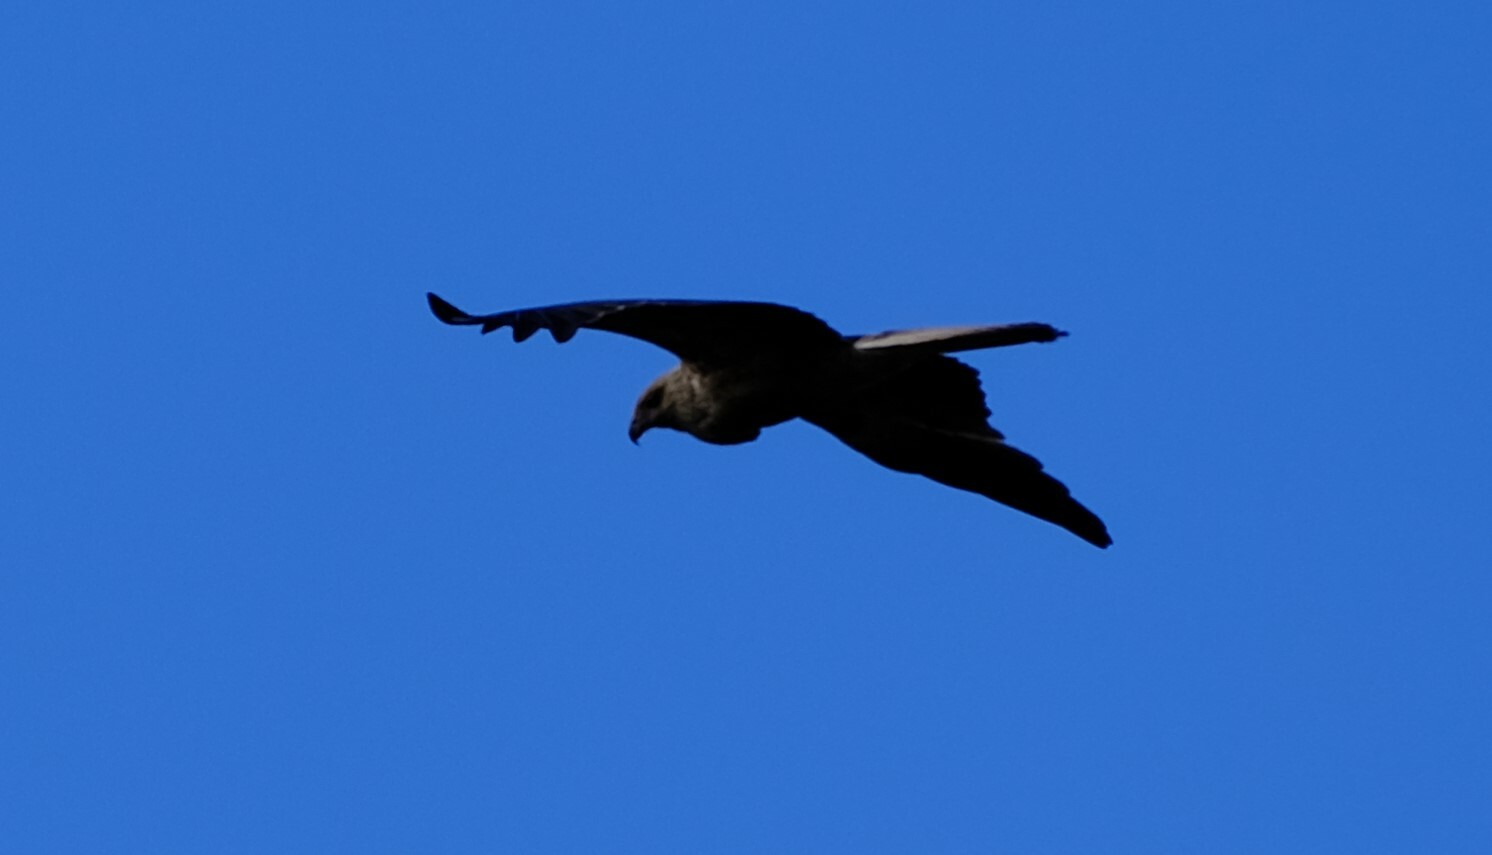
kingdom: Animalia
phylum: Chordata
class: Aves
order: Accipitriformes
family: Accipitridae
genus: Haliastur
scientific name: Haliastur sphenurus
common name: Whistling kite
